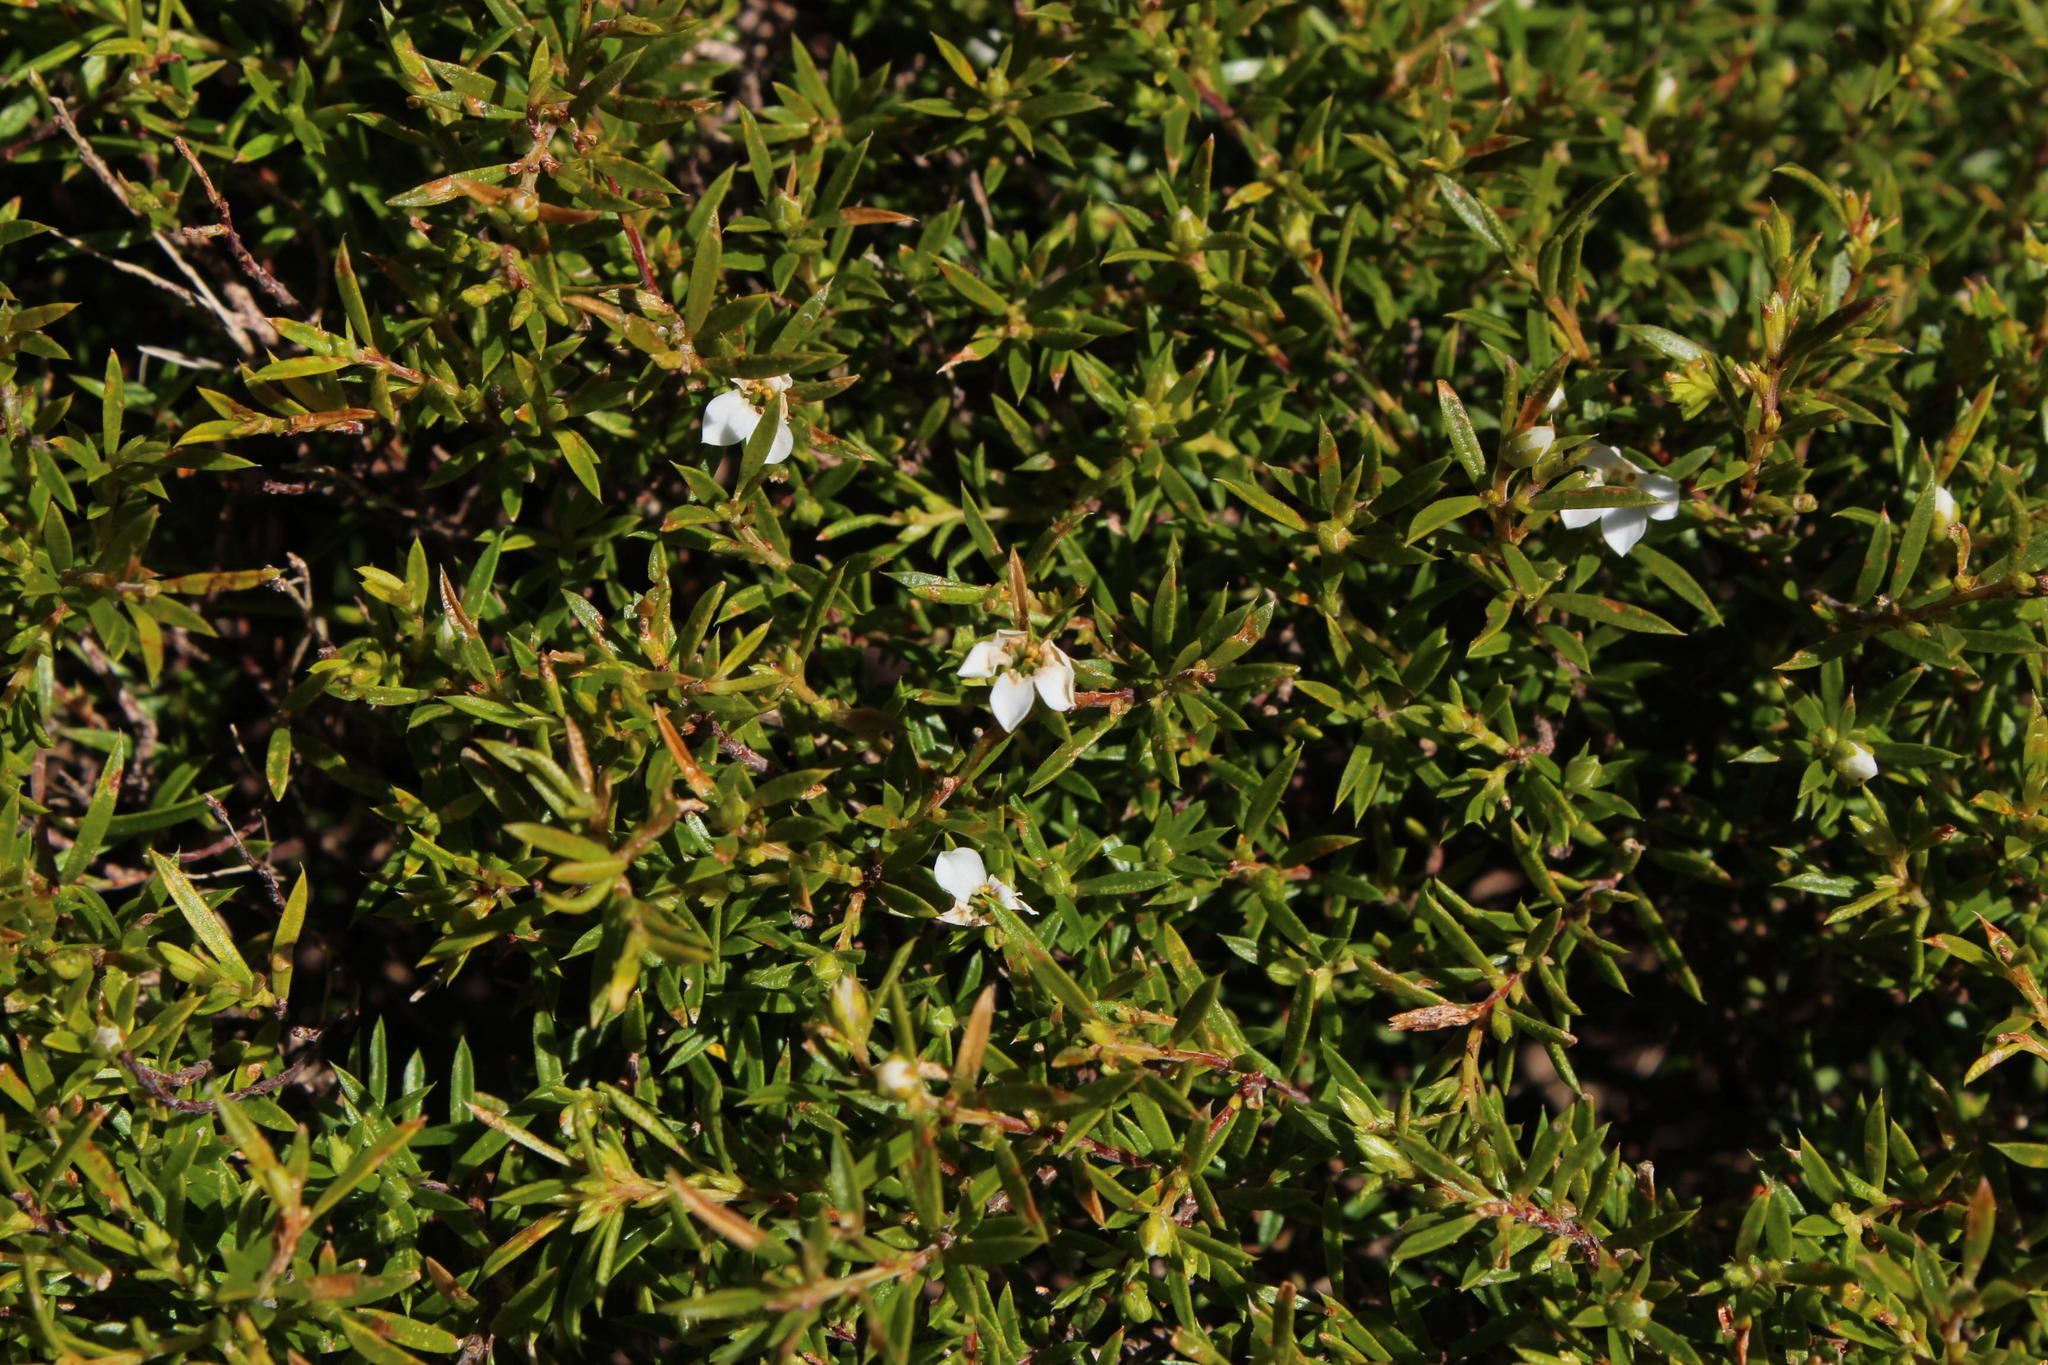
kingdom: Plantae
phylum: Tracheophyta
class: Magnoliopsida
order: Sapindales
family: Rutaceae
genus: Coleonema
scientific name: Coleonema album
